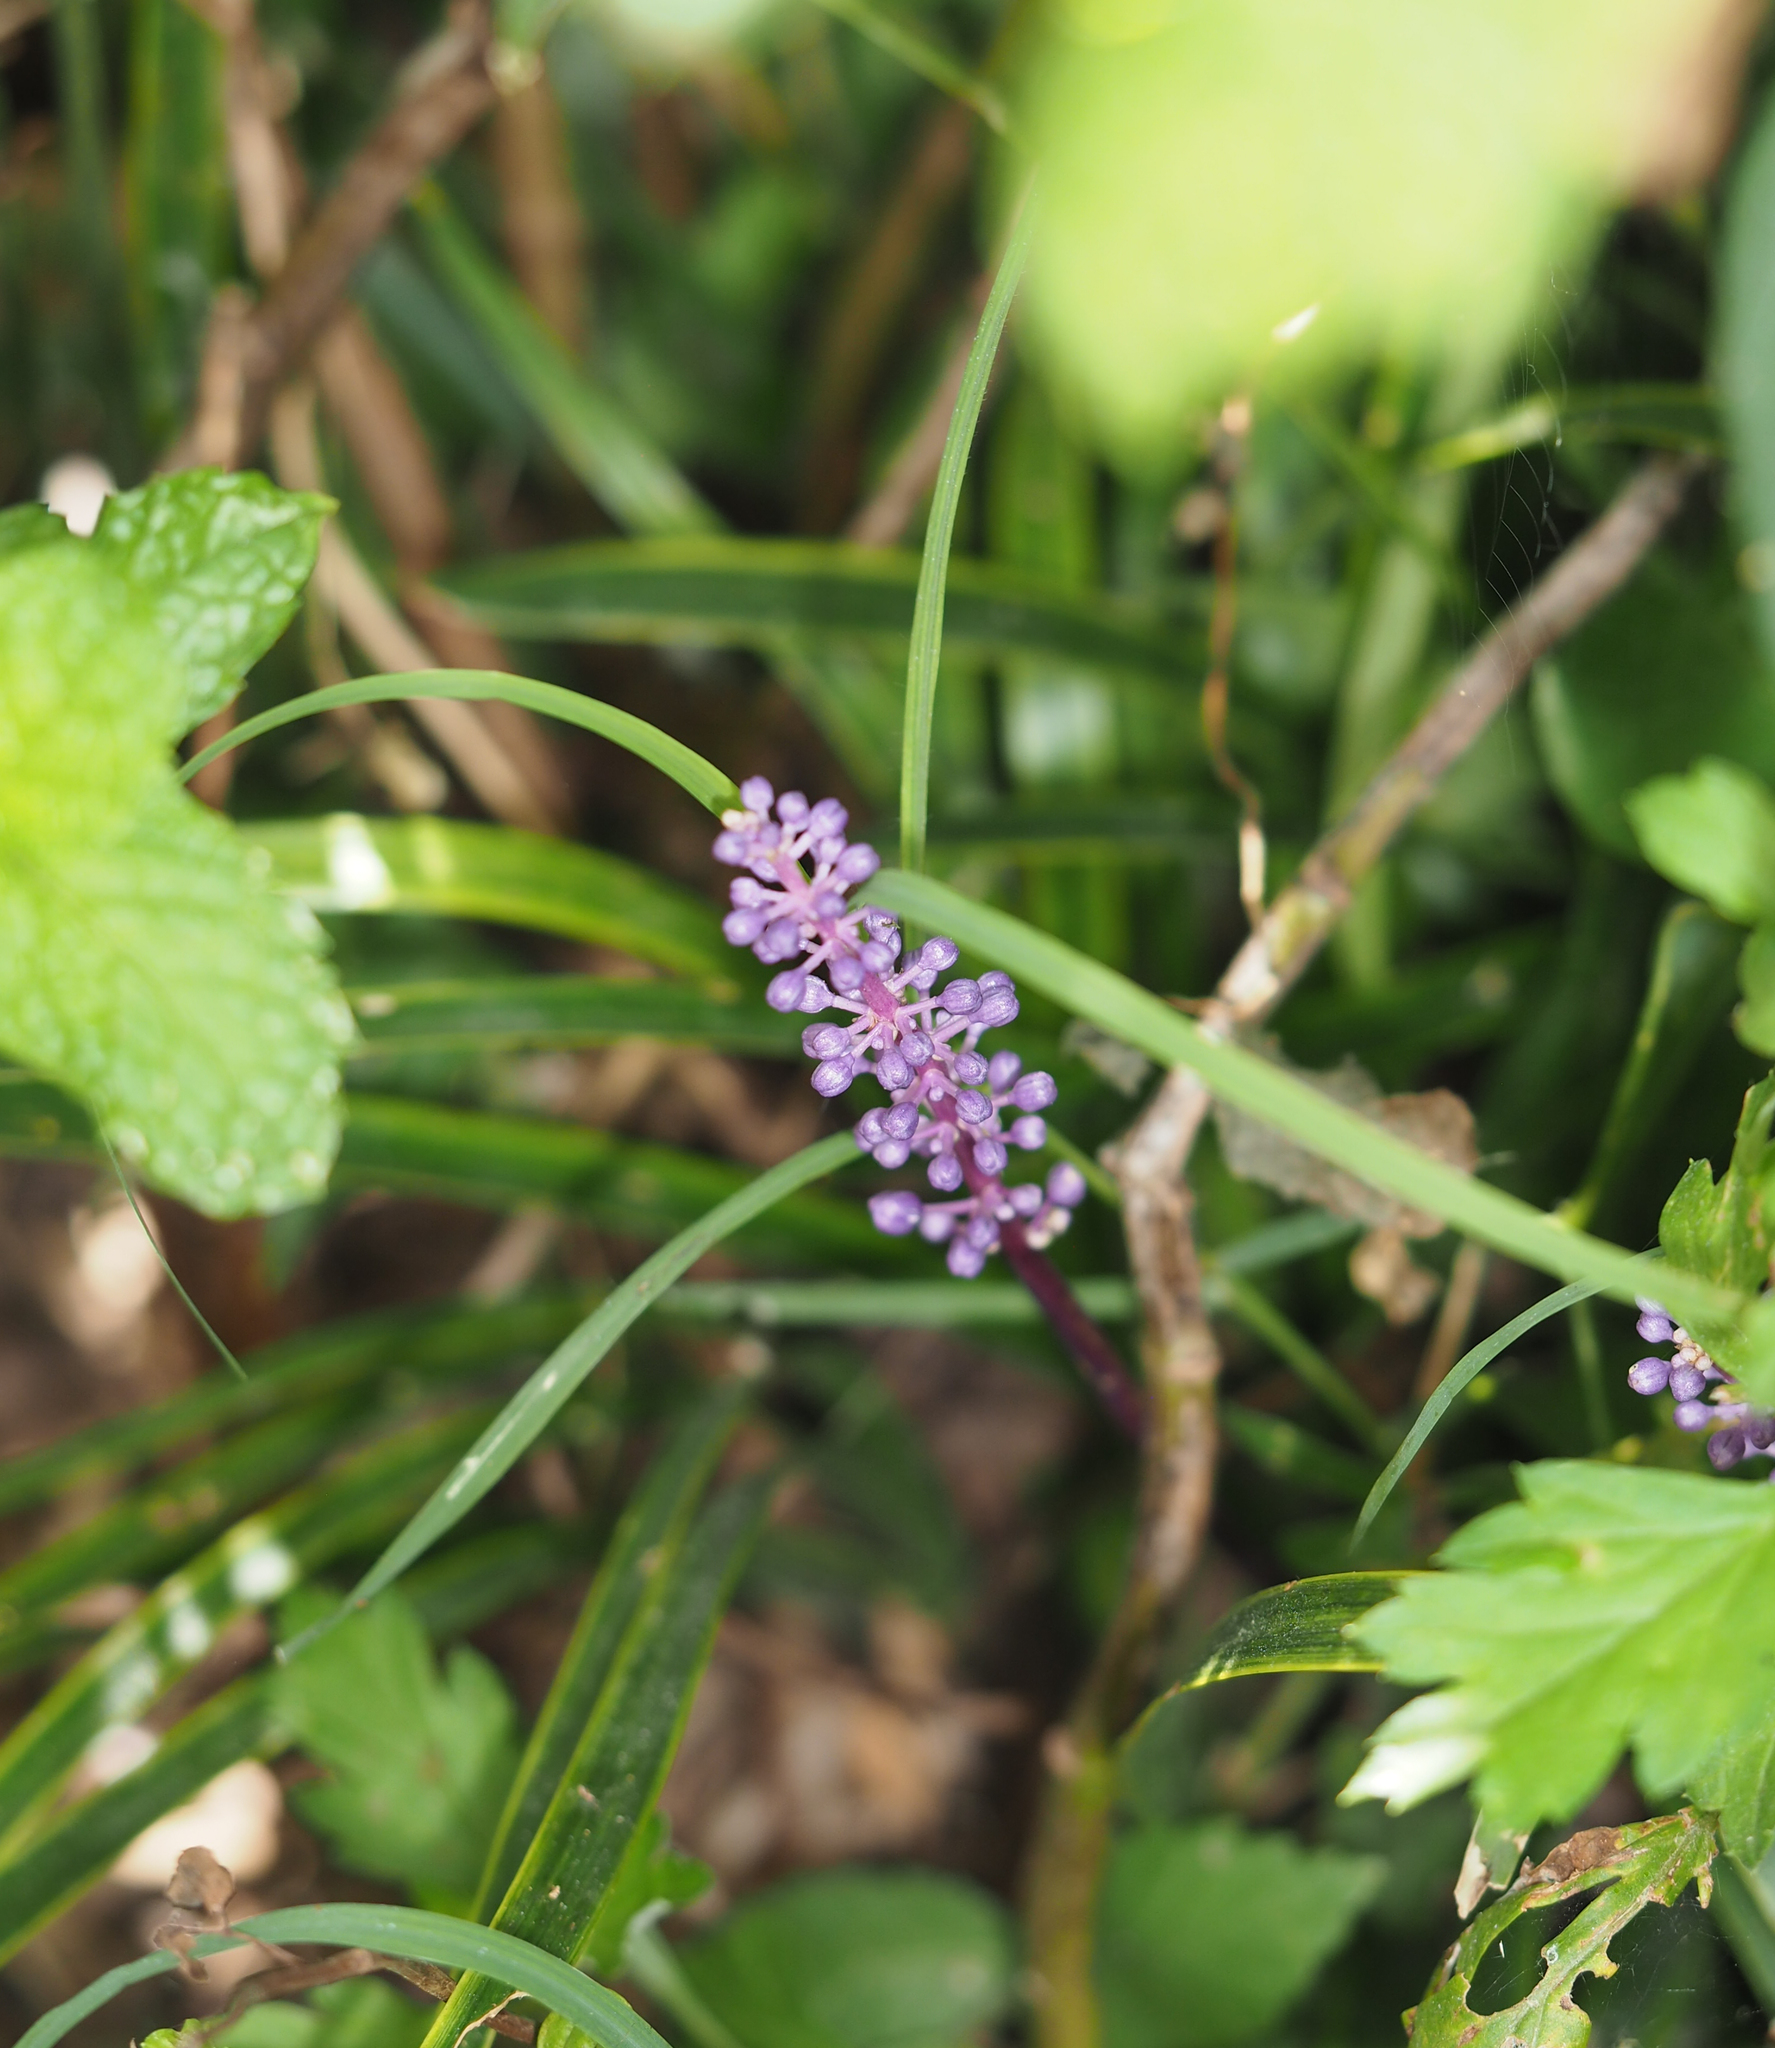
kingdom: Plantae
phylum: Tracheophyta
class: Liliopsida
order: Asparagales
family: Asparagaceae
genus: Liriope
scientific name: Liriope graminifolia
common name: Lilyturf
